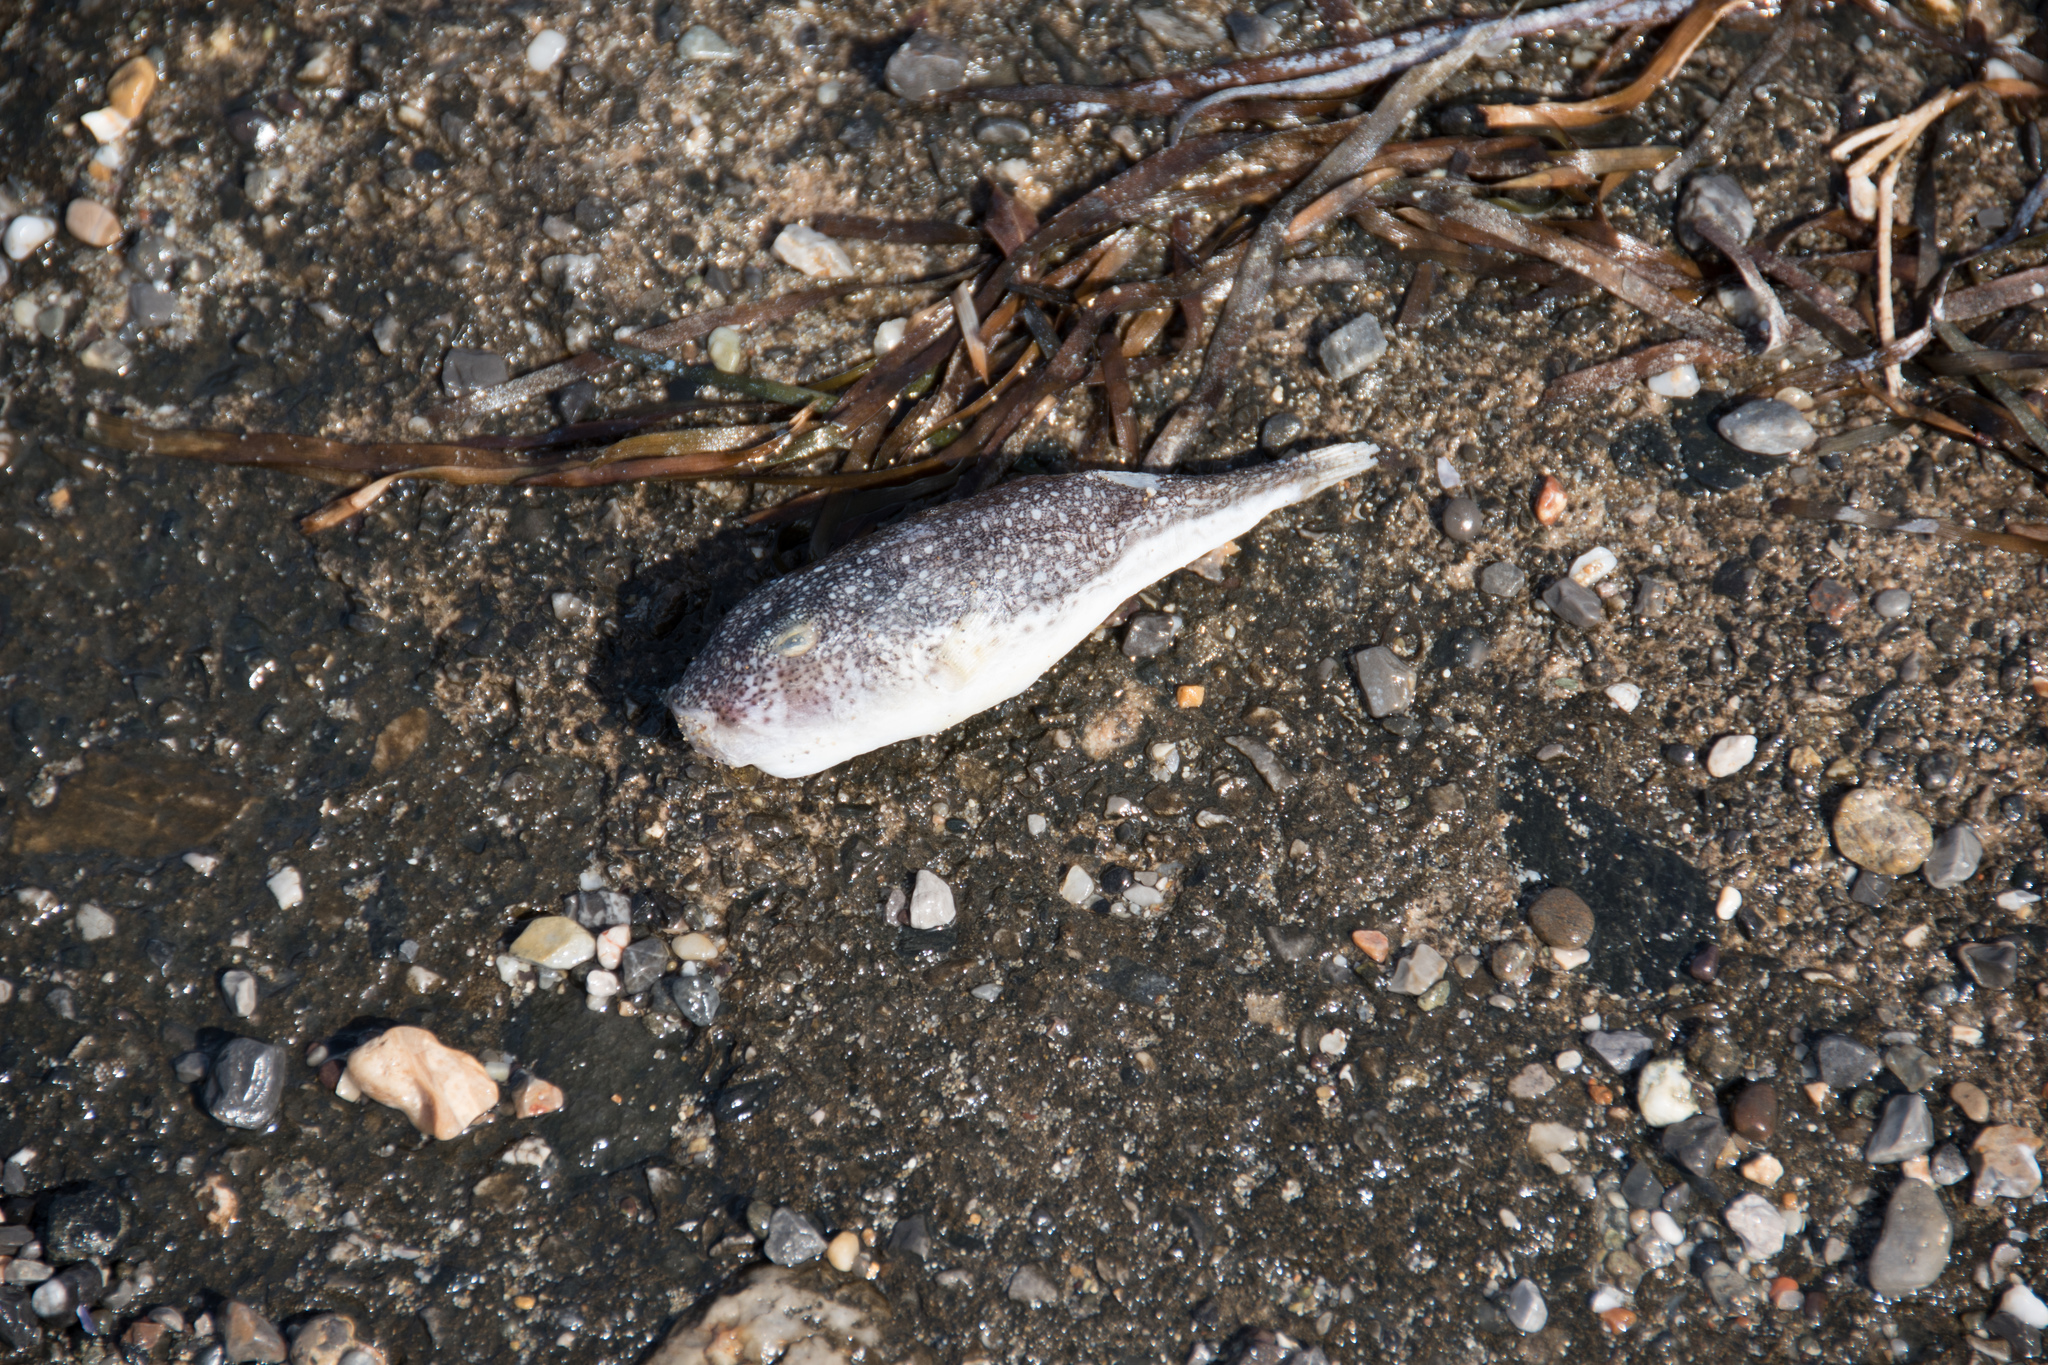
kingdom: Animalia
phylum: Chordata
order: Tetraodontiformes
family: Tetraodontidae
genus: Torquigener
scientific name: Torquigener flavimaculosus
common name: Studded pufferfish
